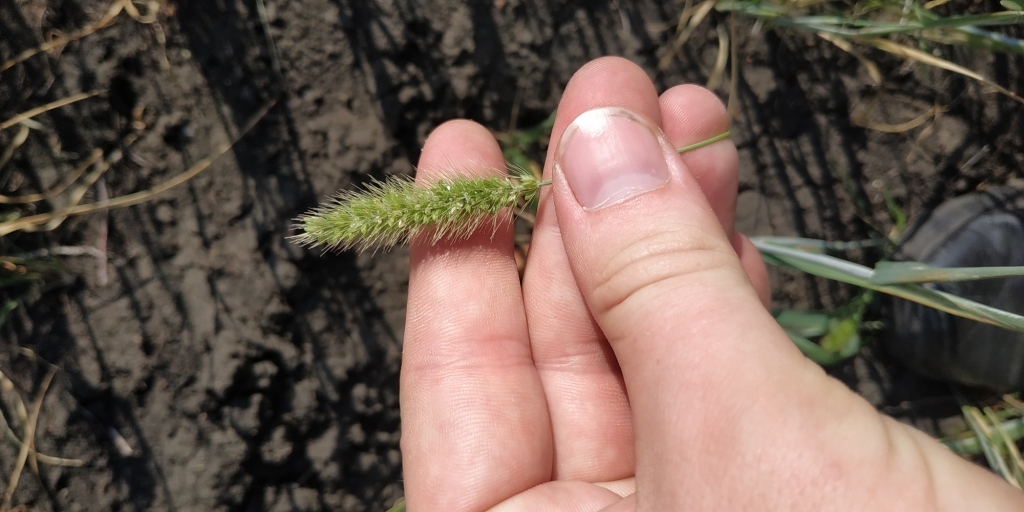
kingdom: Plantae
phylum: Tracheophyta
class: Liliopsida
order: Poales
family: Poaceae
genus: Setaria
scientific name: Setaria viridis
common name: Green bristlegrass
